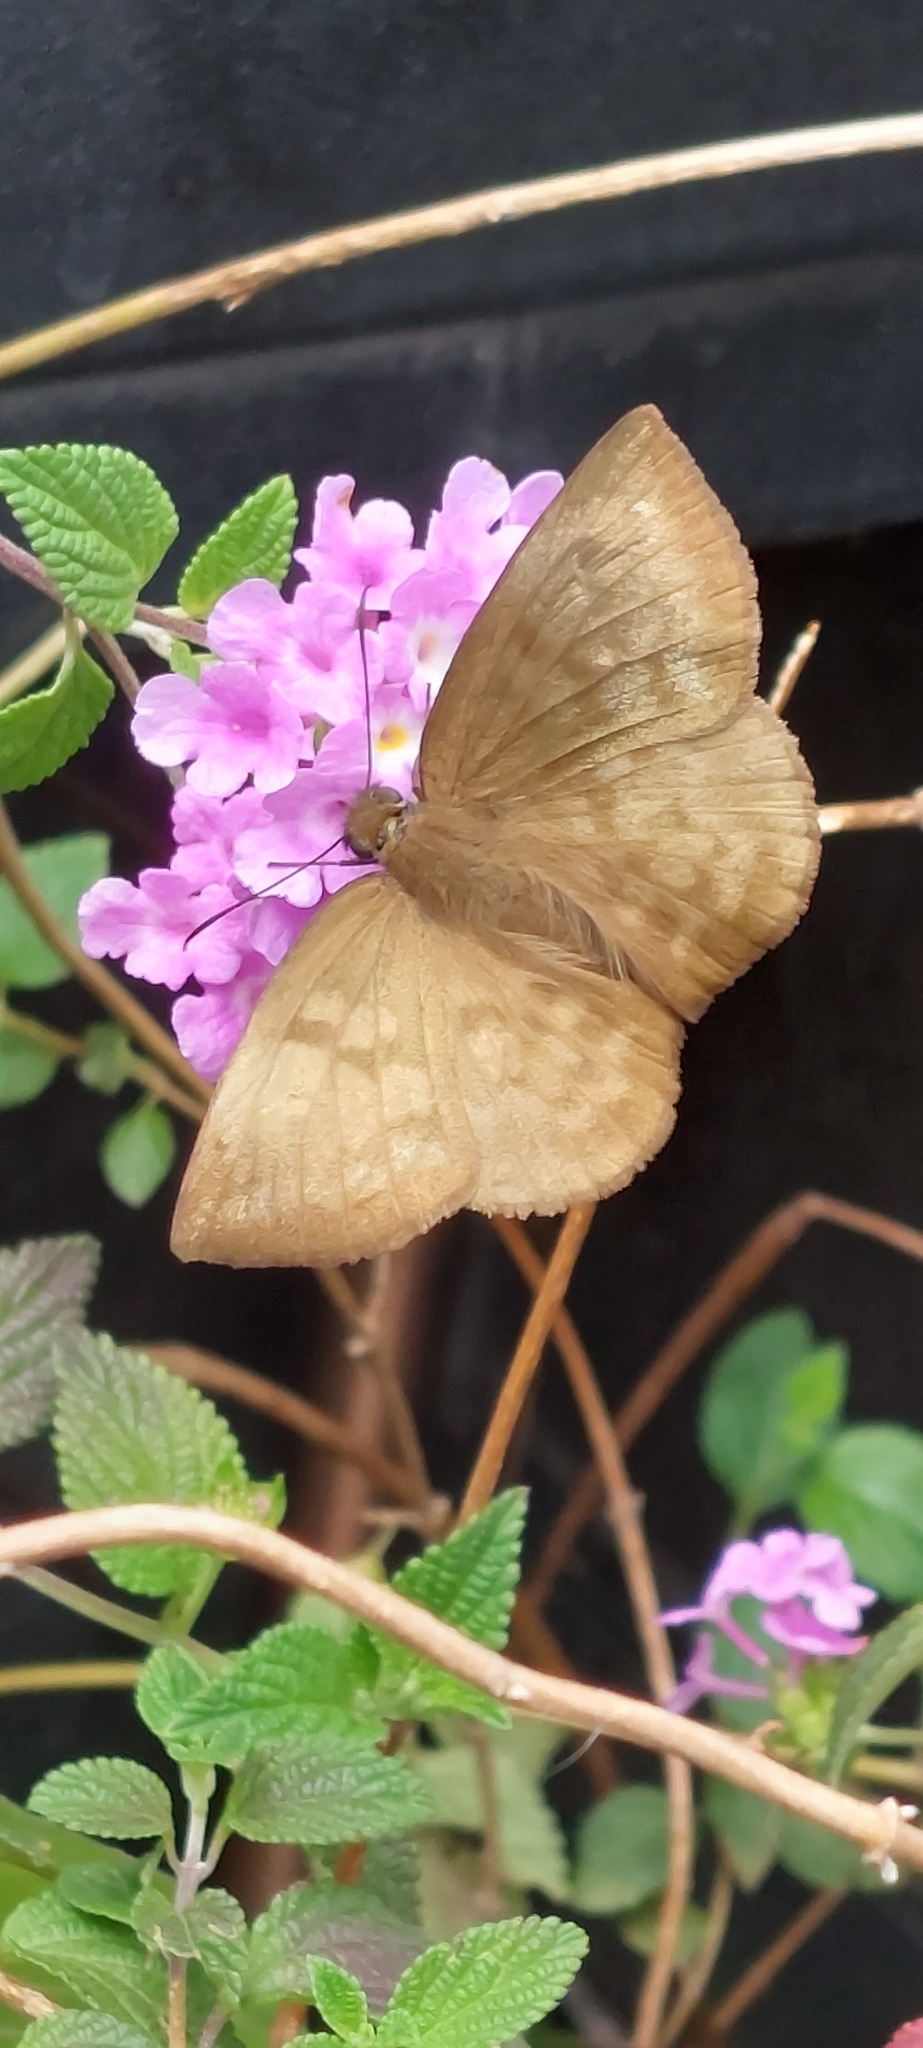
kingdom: Animalia
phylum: Arthropoda
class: Insecta
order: Lepidoptera
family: Hesperiidae
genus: Achlyodes
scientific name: Achlyodes pallida
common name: Pale sicklewing
